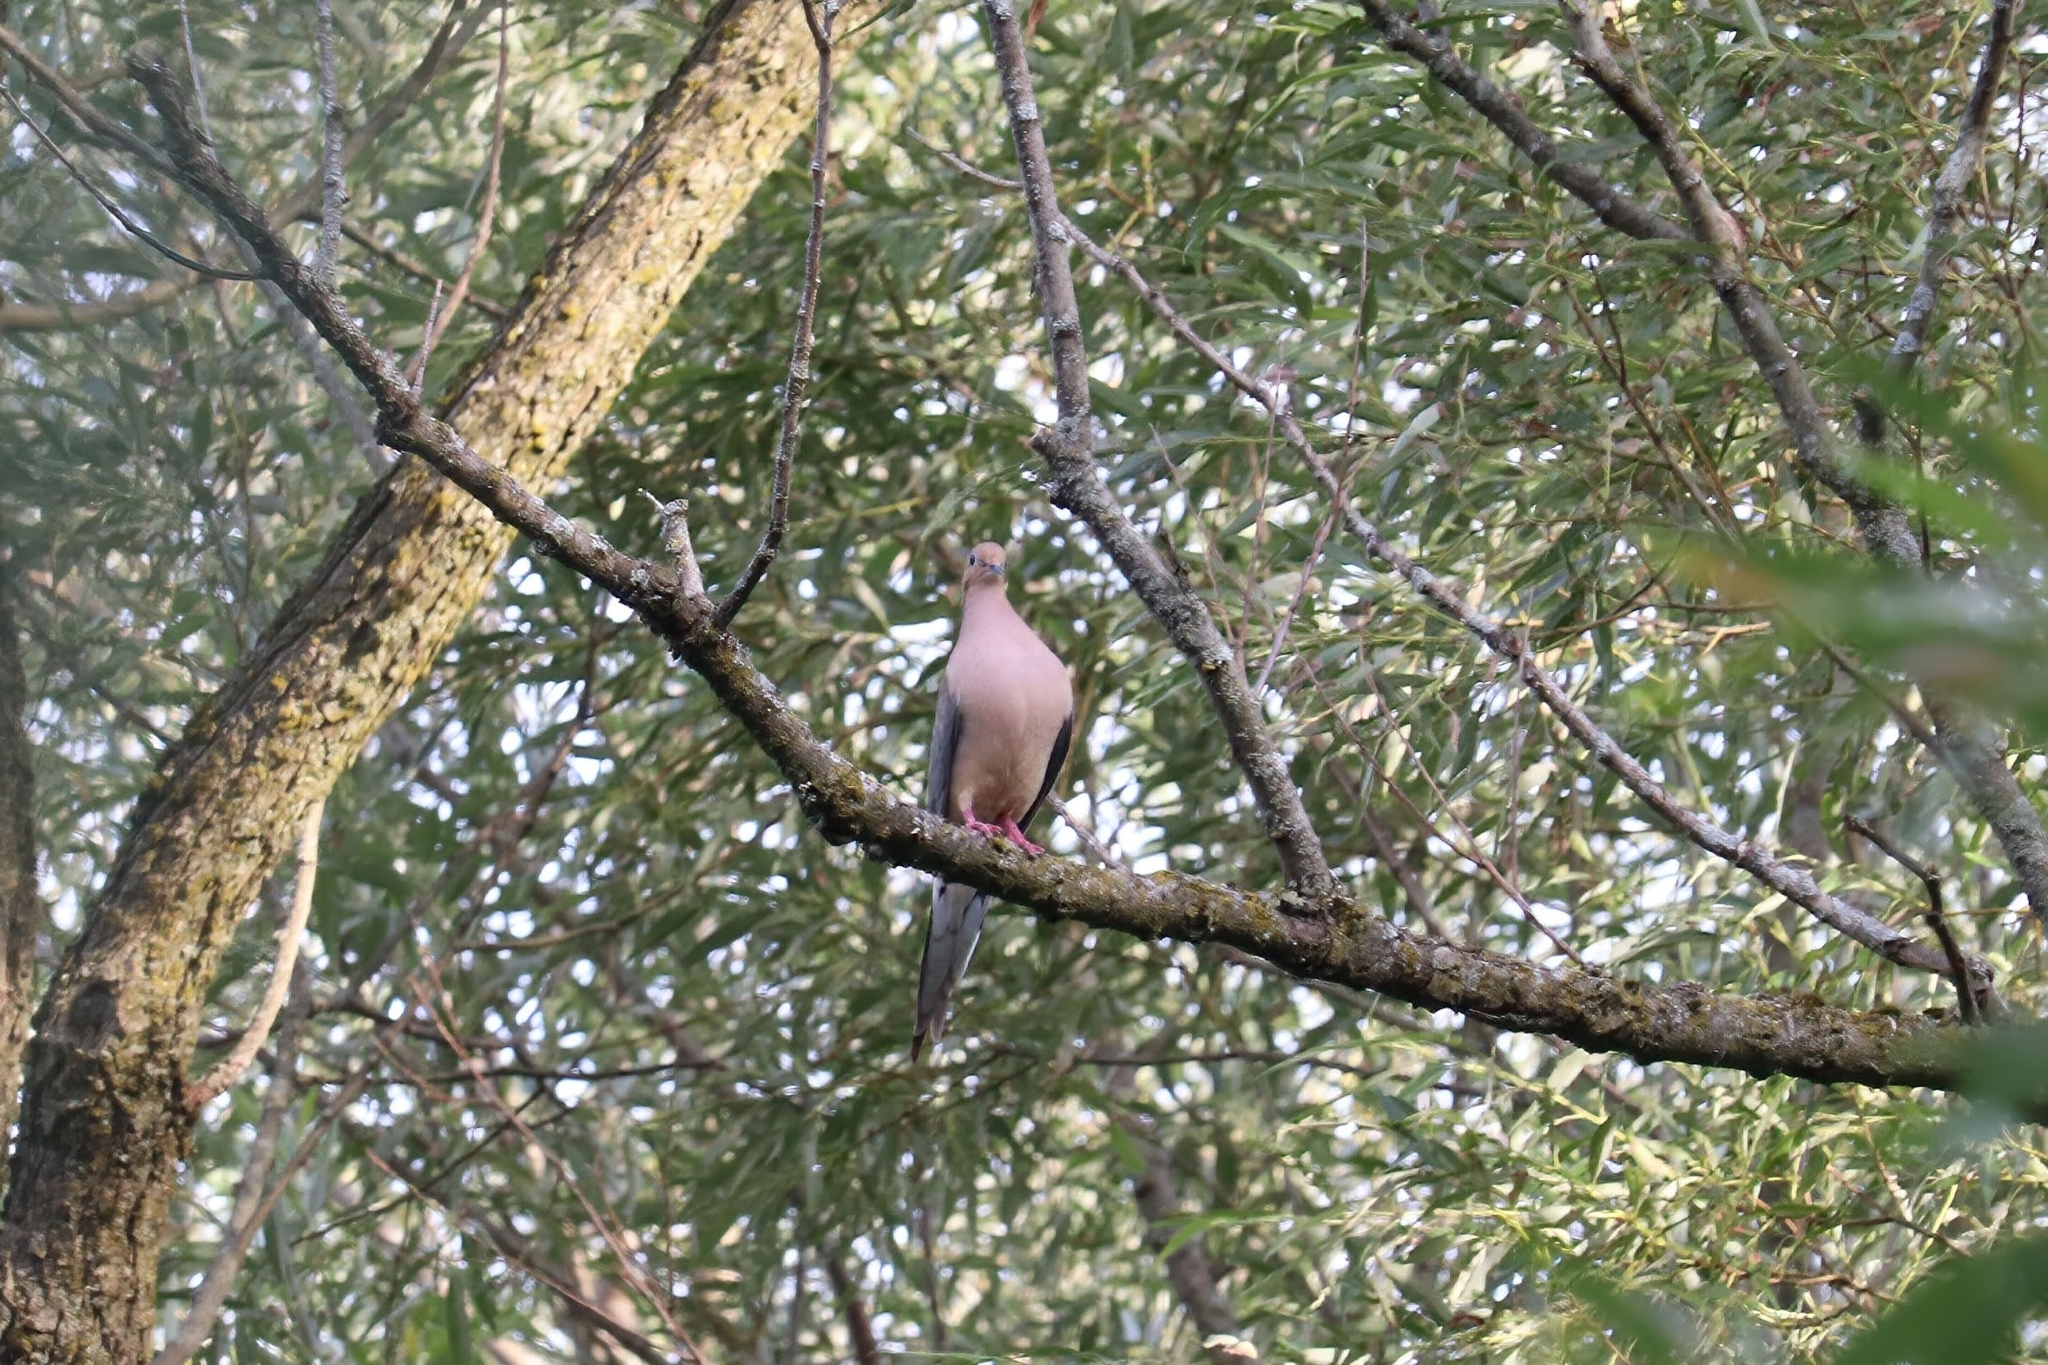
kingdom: Animalia
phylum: Chordata
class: Aves
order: Columbiformes
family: Columbidae
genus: Zenaida
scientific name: Zenaida macroura
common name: Mourning dove
